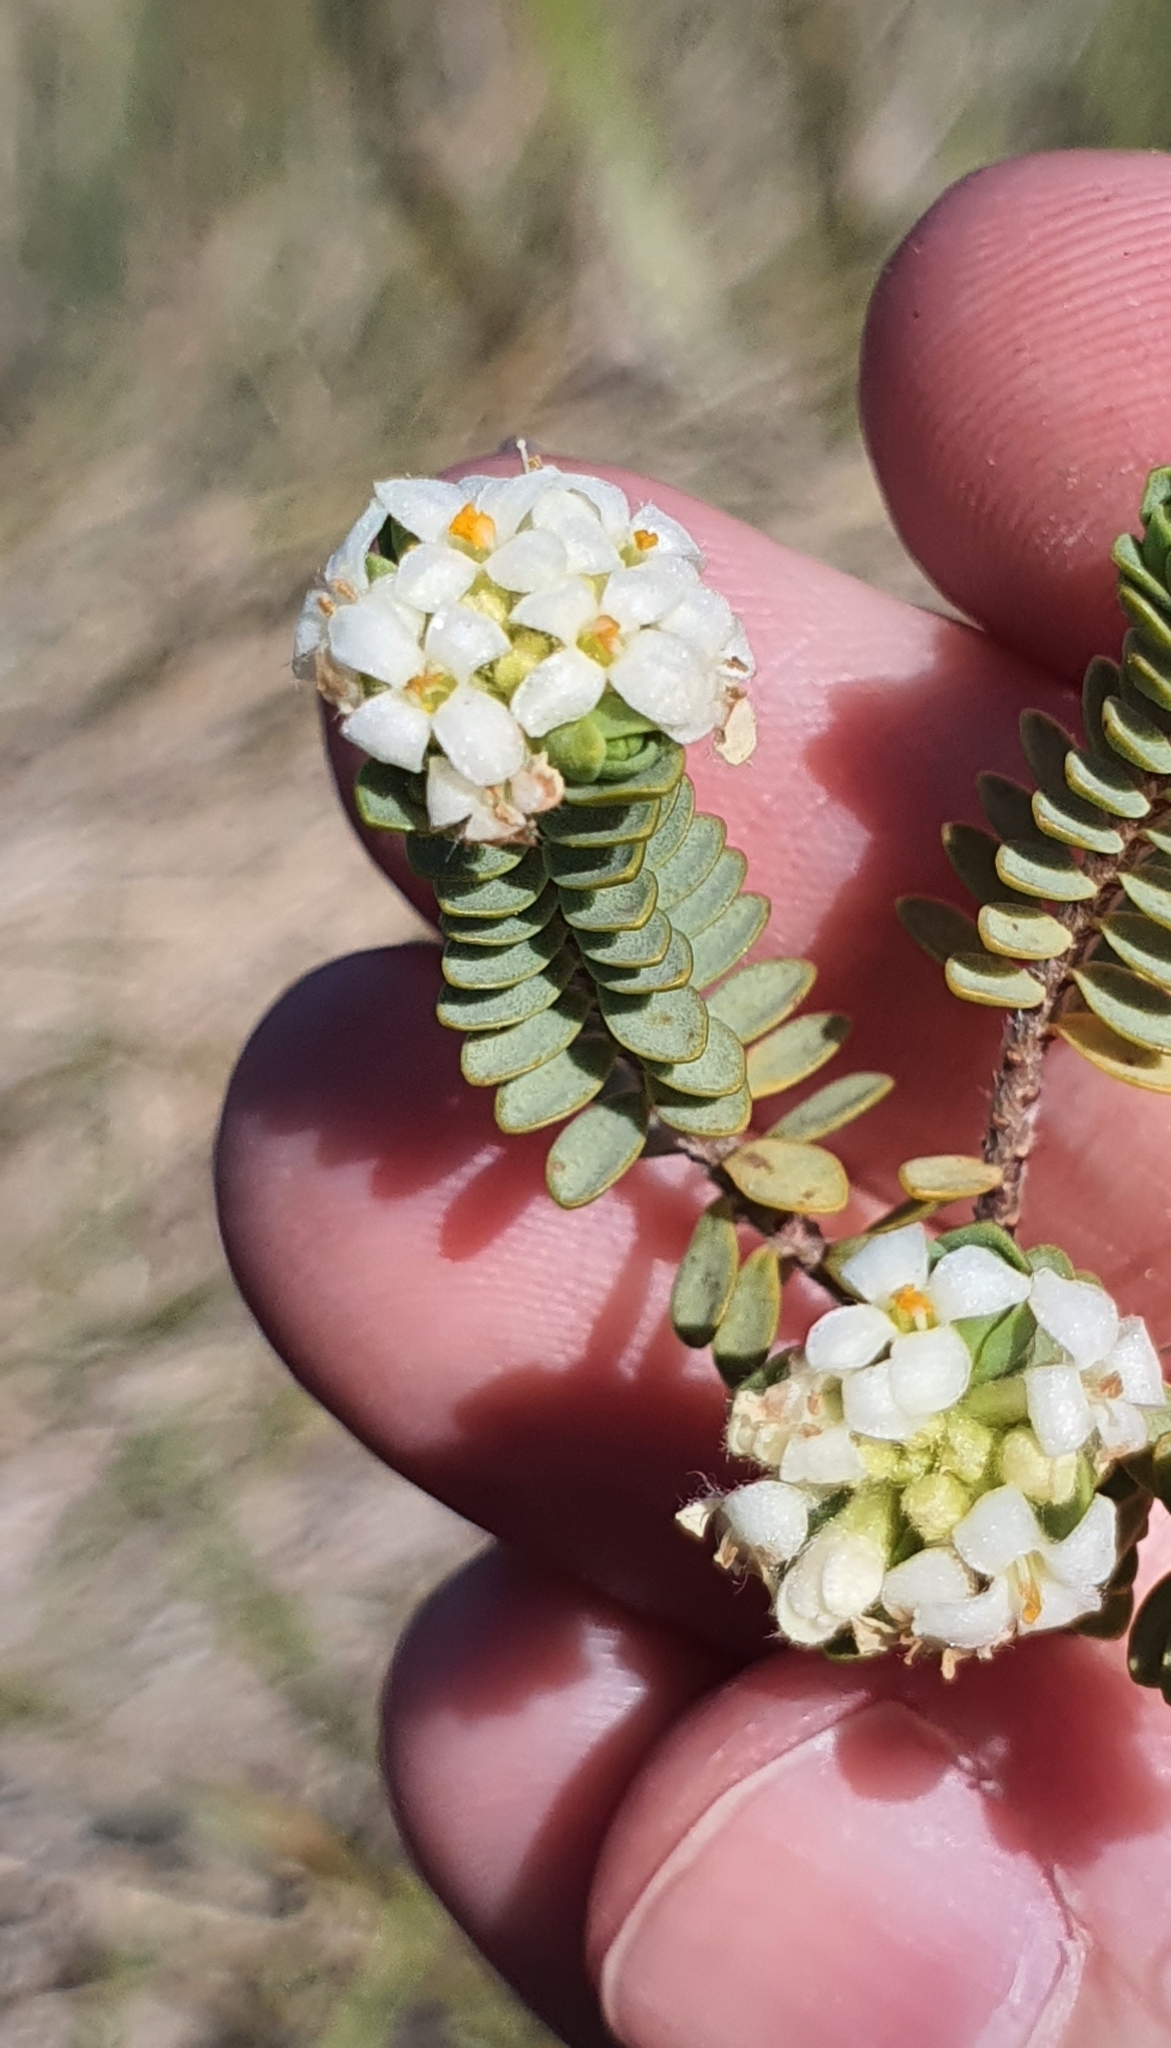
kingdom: Plantae
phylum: Tracheophyta
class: Magnoliopsida
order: Malvales
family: Thymelaeaceae
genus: Pimelea
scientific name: Pimelea prostrata
